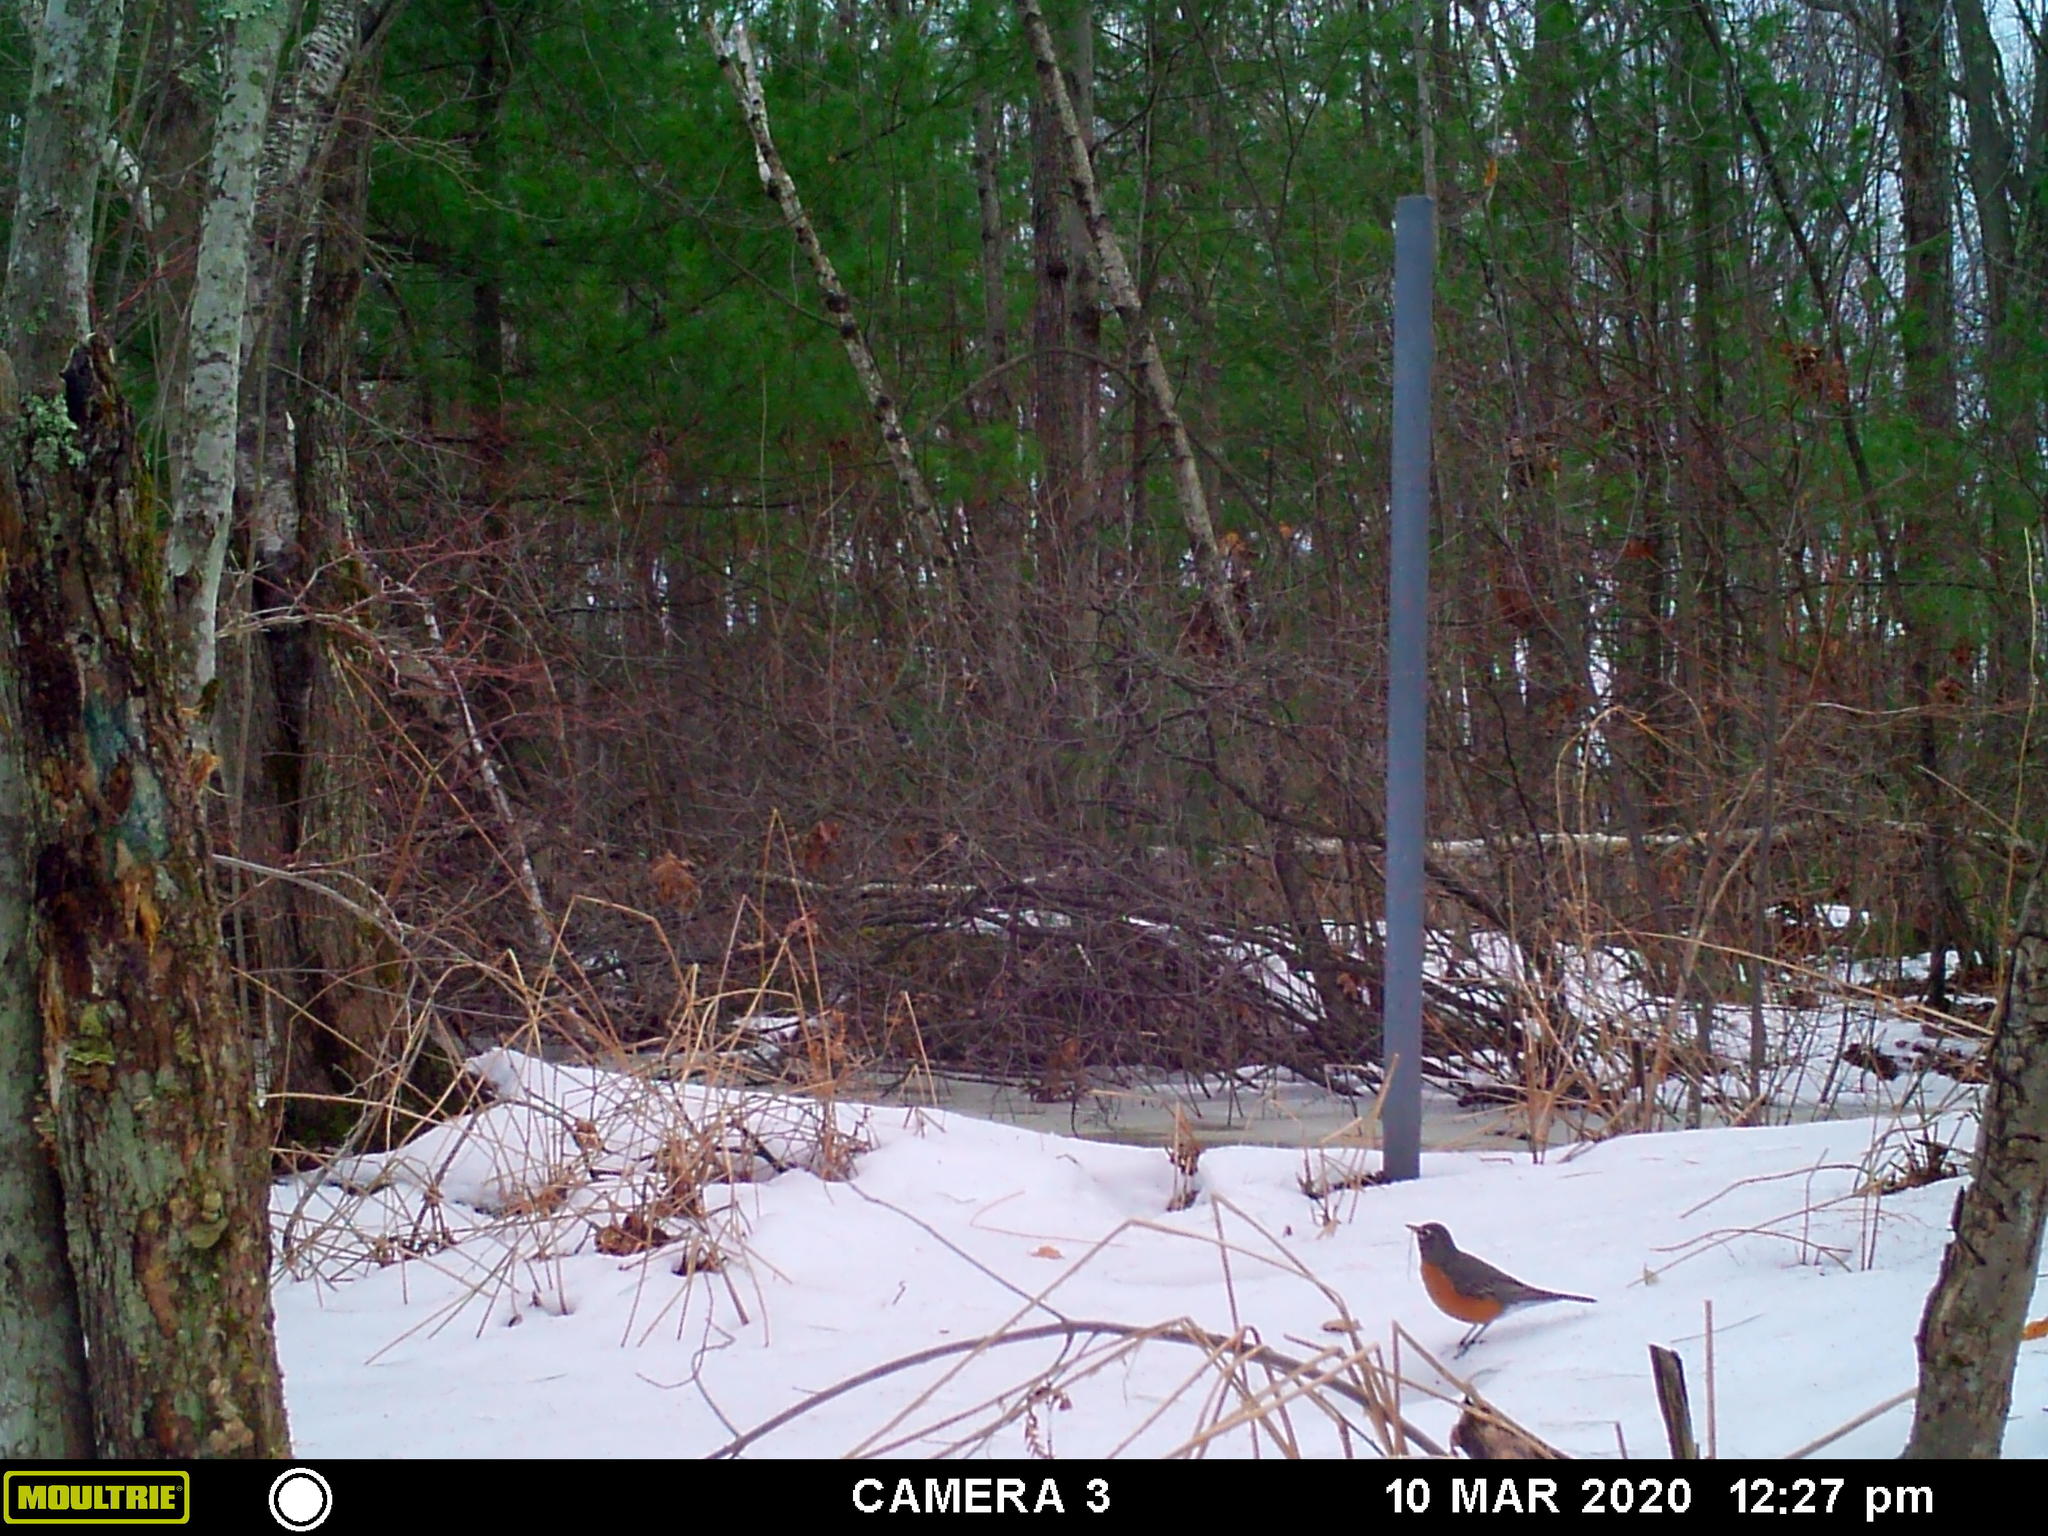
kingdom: Animalia
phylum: Chordata
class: Aves
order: Passeriformes
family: Turdidae
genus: Turdus
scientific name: Turdus migratorius
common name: American robin
